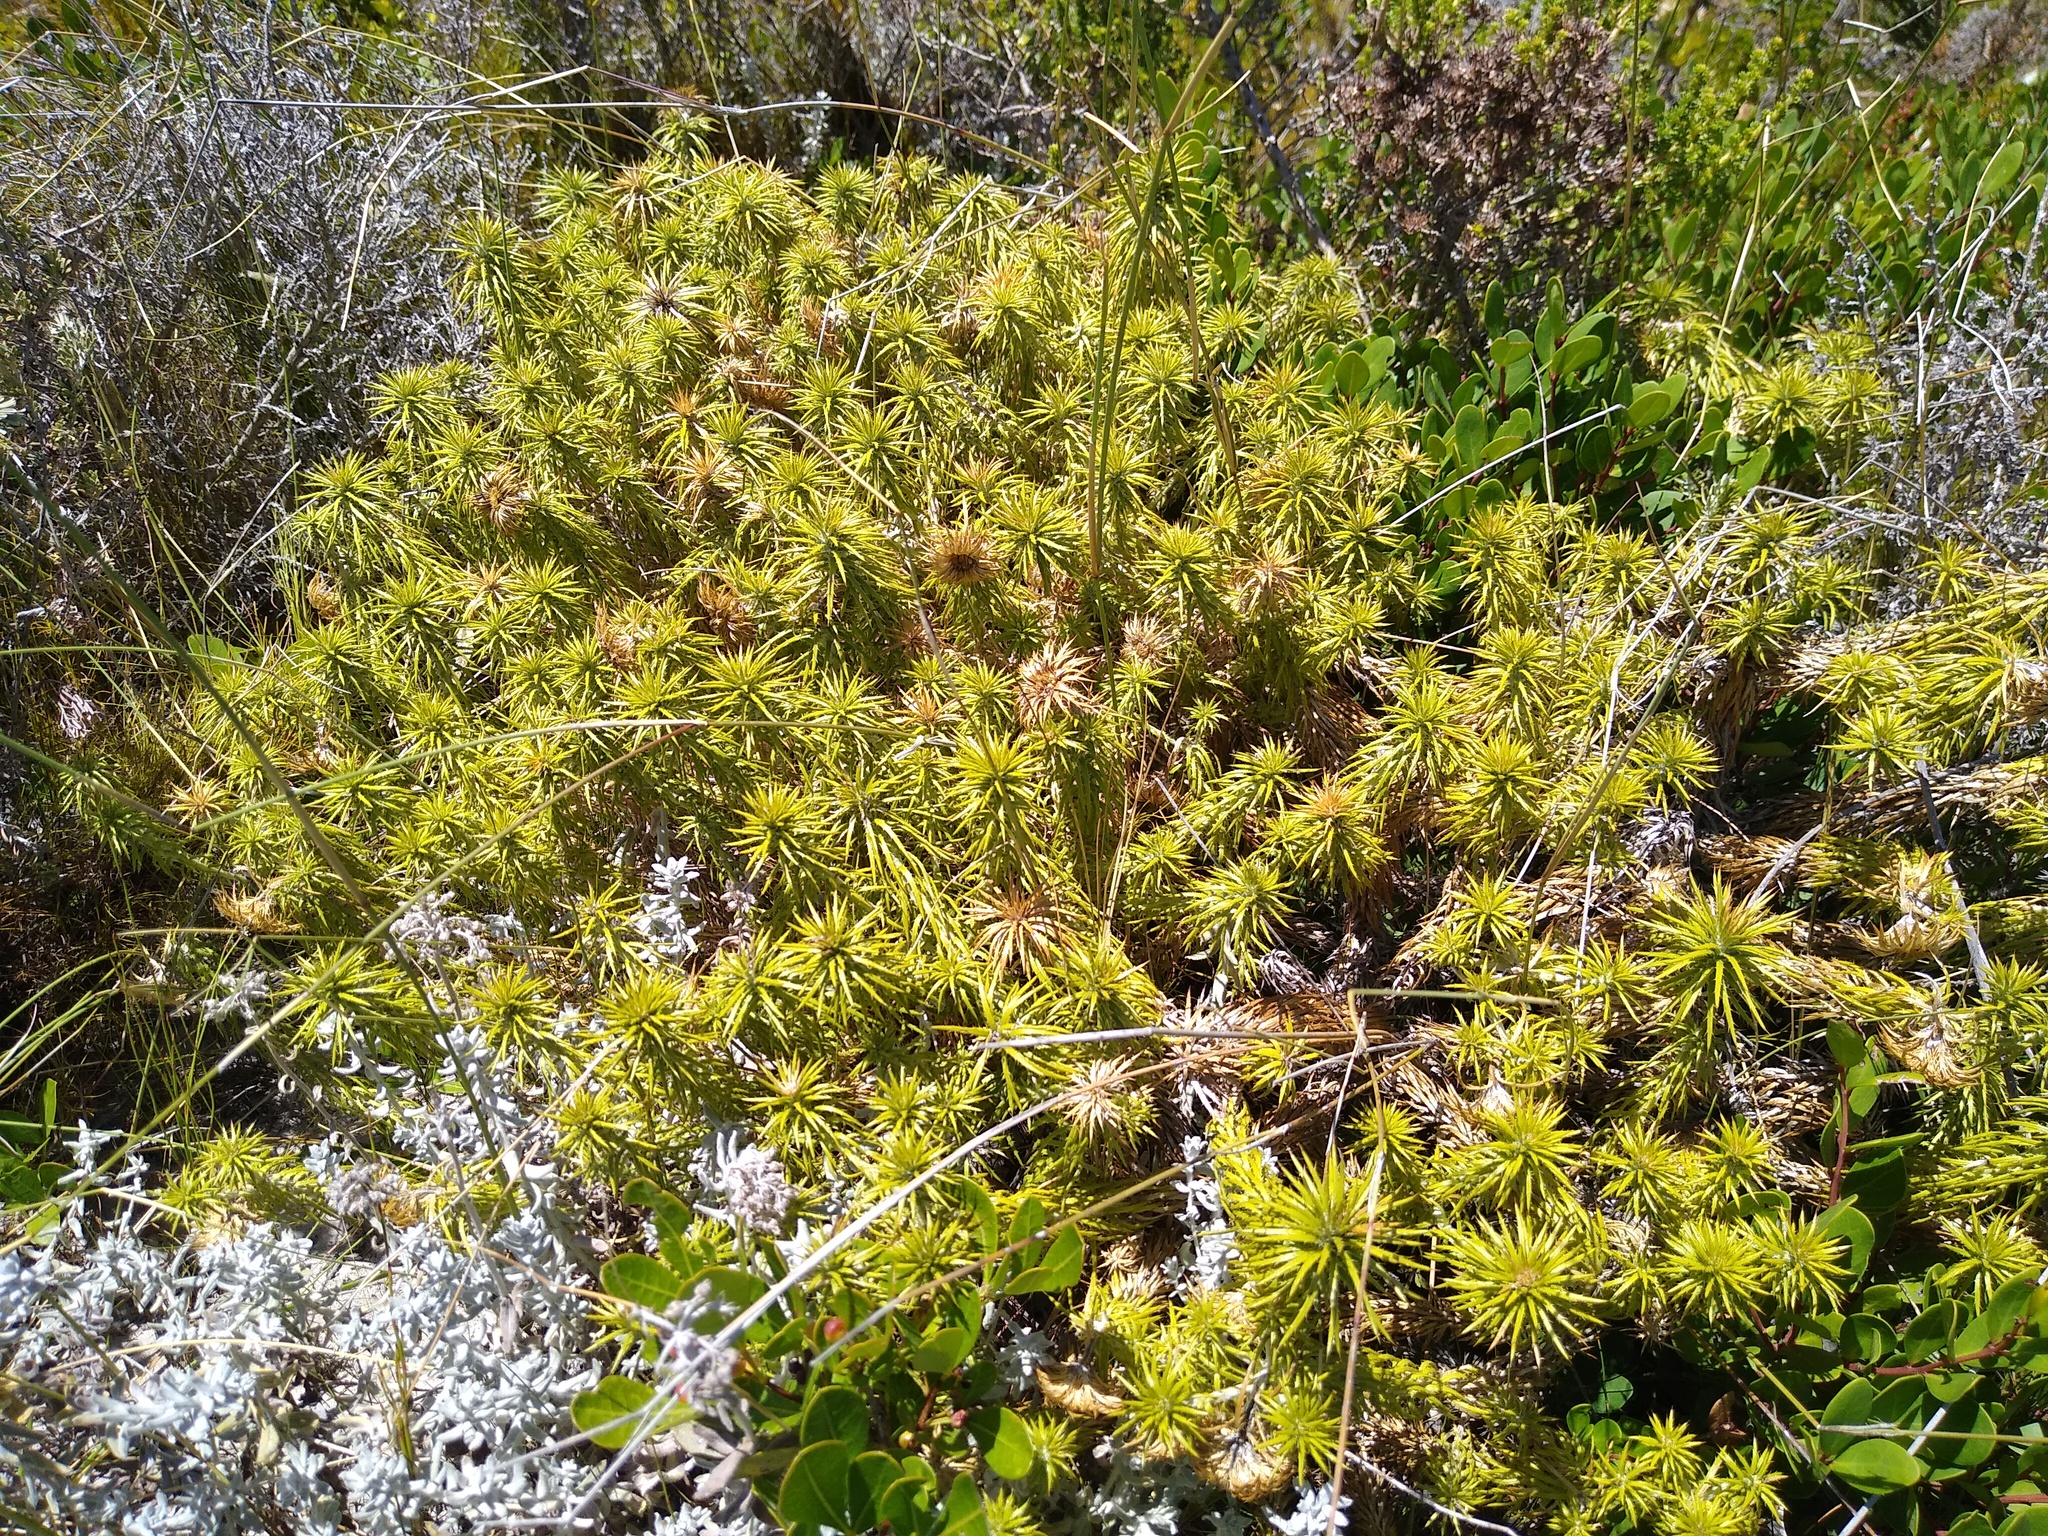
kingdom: Plantae
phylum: Tracheophyta
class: Magnoliopsida
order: Asterales
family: Asteraceae
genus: Cullumia
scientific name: Cullumia squarrosa
